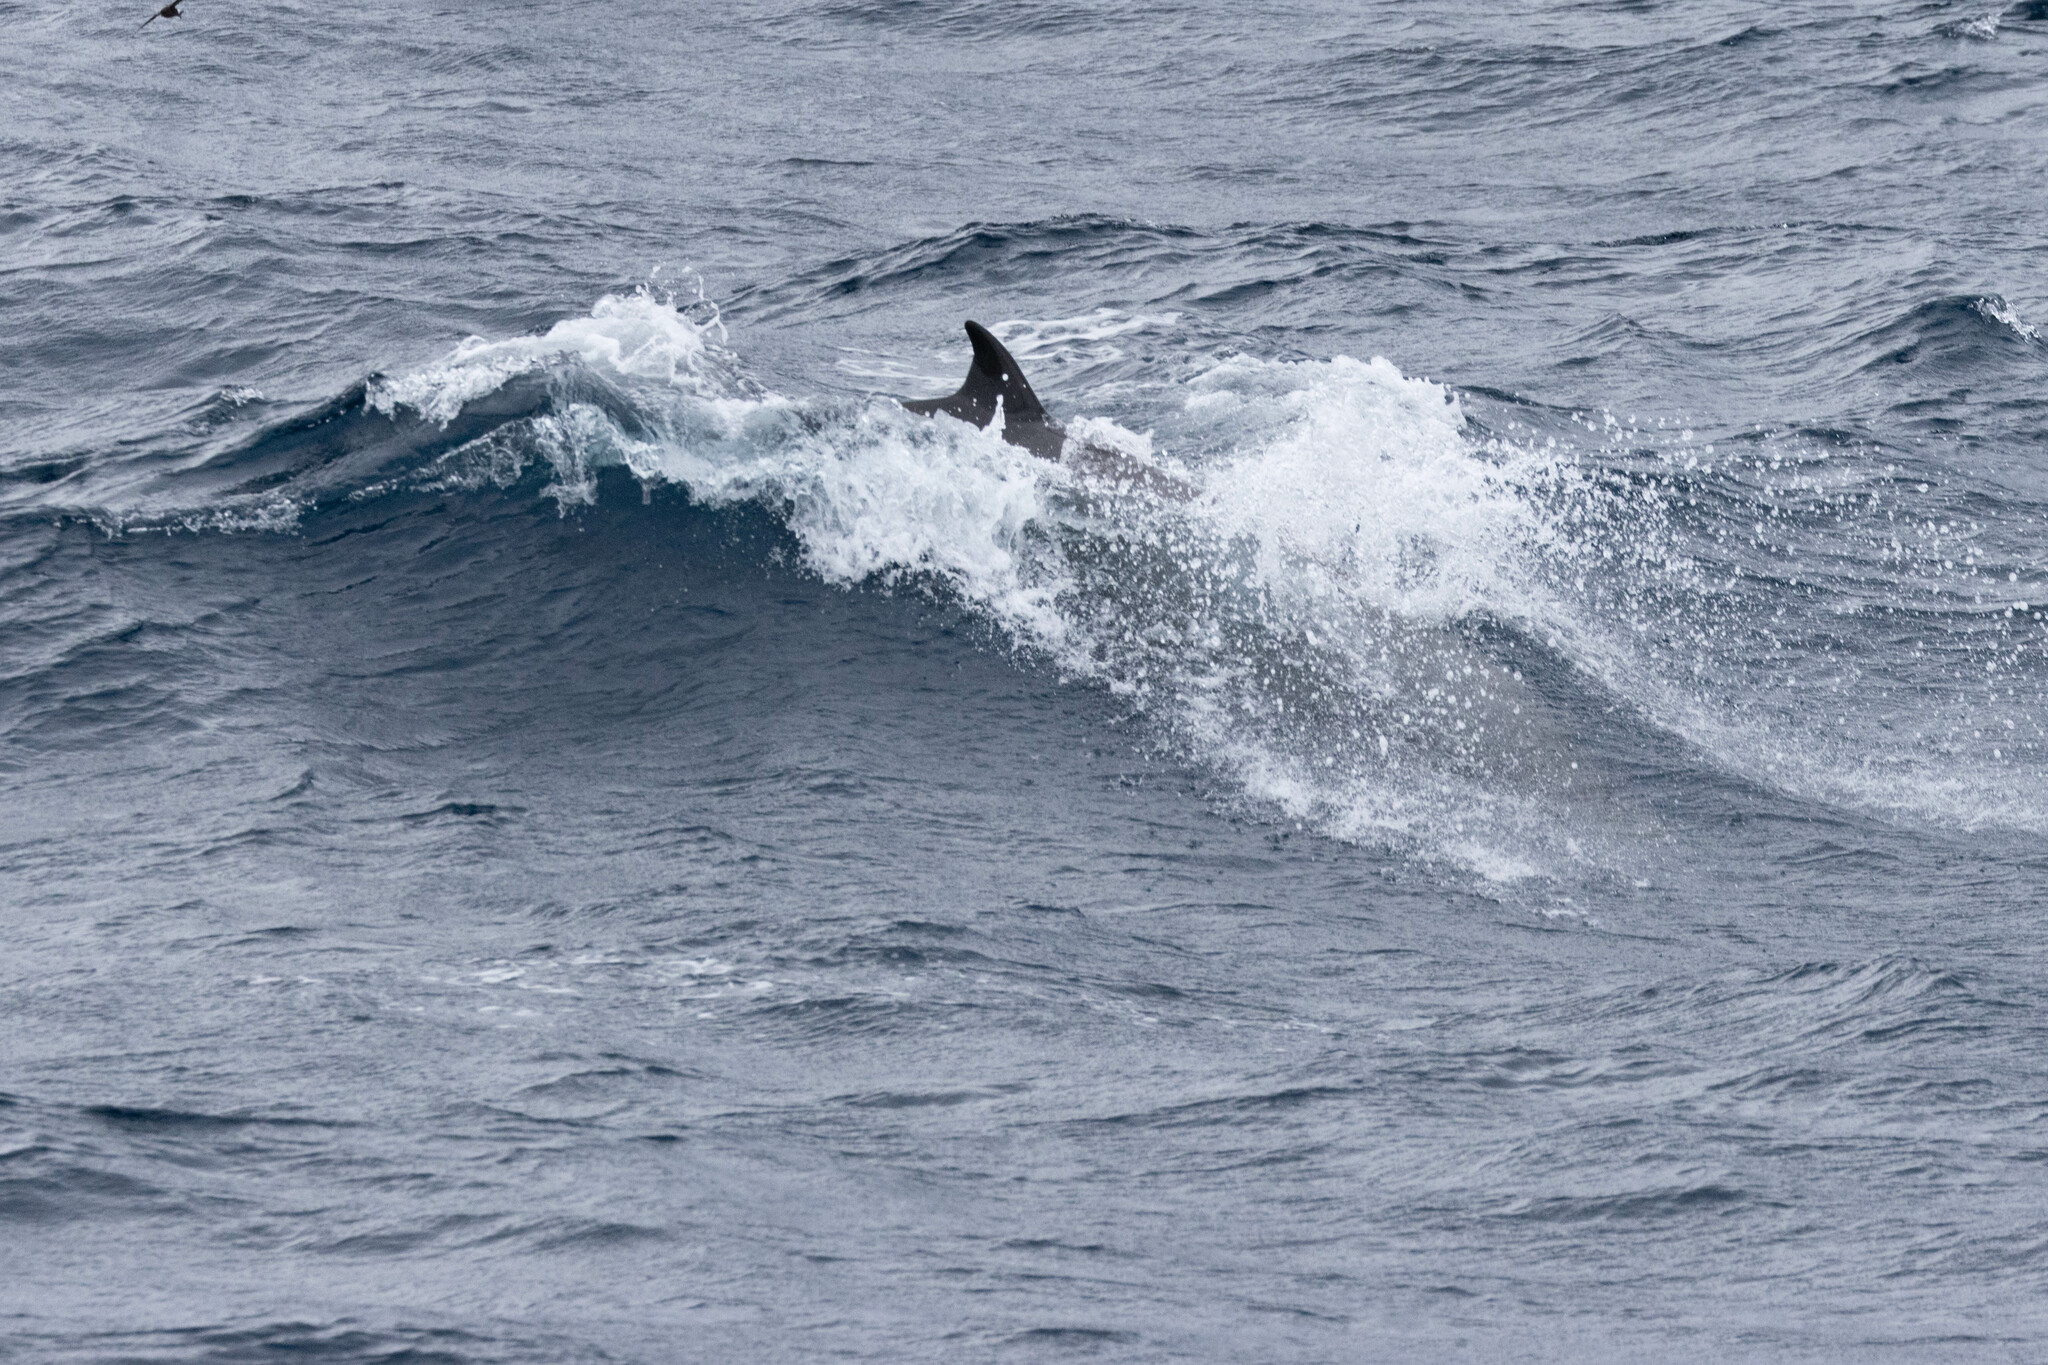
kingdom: Animalia
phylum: Chordata
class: Mammalia
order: Cetacea
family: Hyperoodontidae
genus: Mesoplodon
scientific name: Mesoplodon bidens
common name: Sowerby's beaked whale
